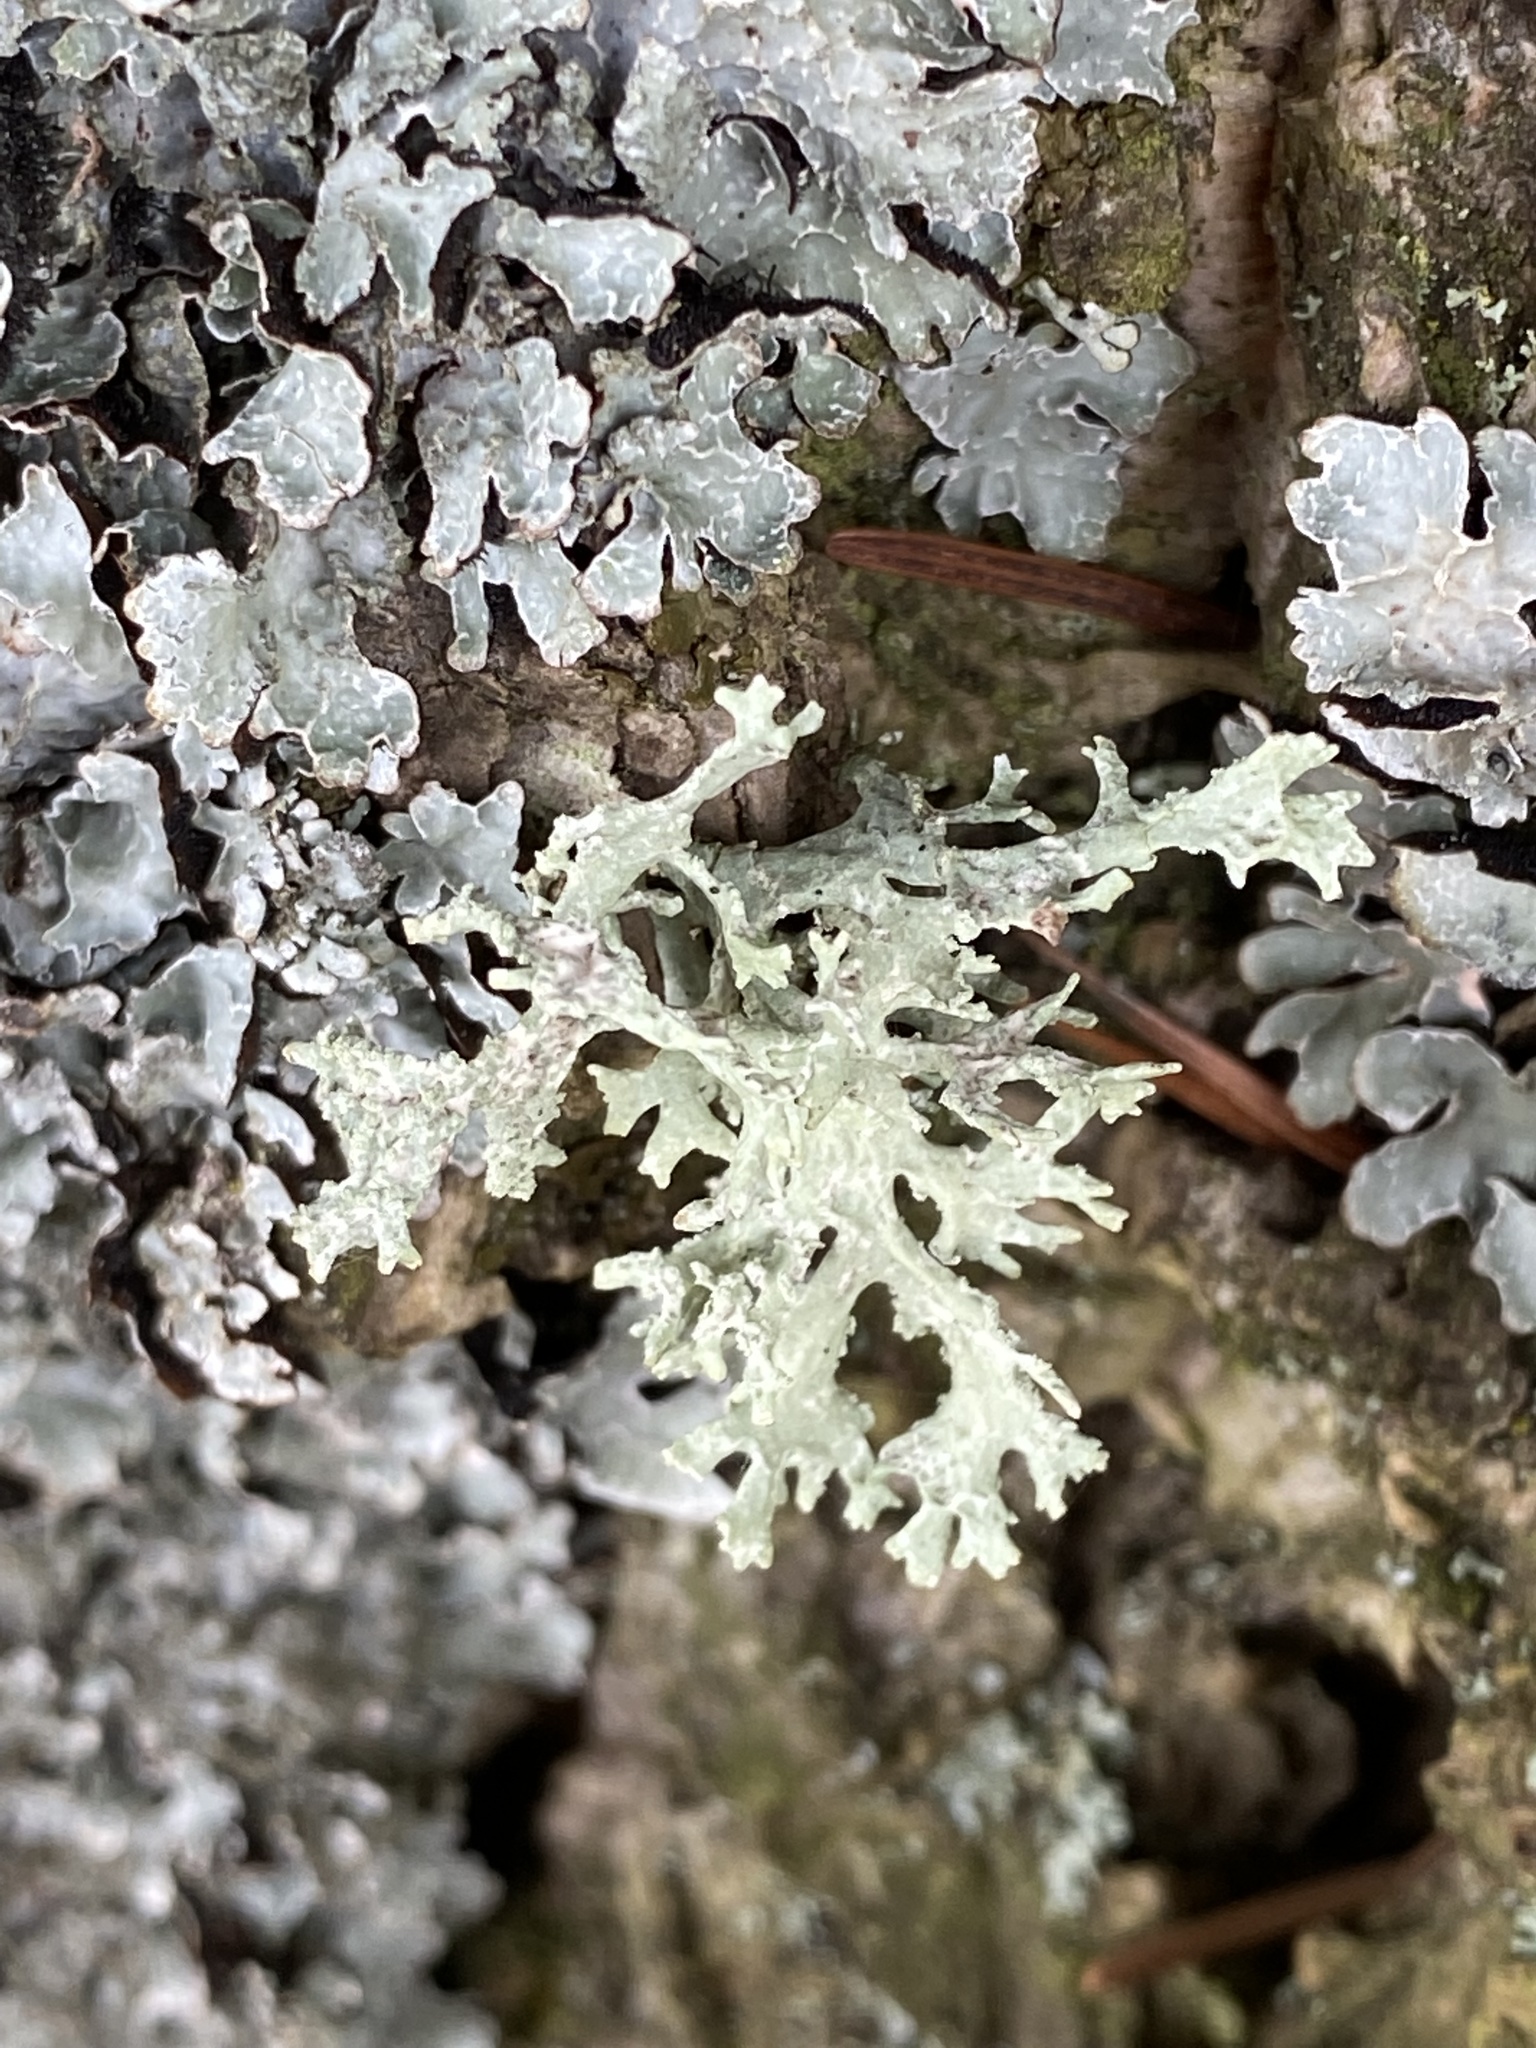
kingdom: Fungi
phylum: Ascomycota
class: Lecanoromycetes
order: Lecanorales
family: Parmeliaceae
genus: Evernia
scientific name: Evernia prunastri
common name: Oak moss
